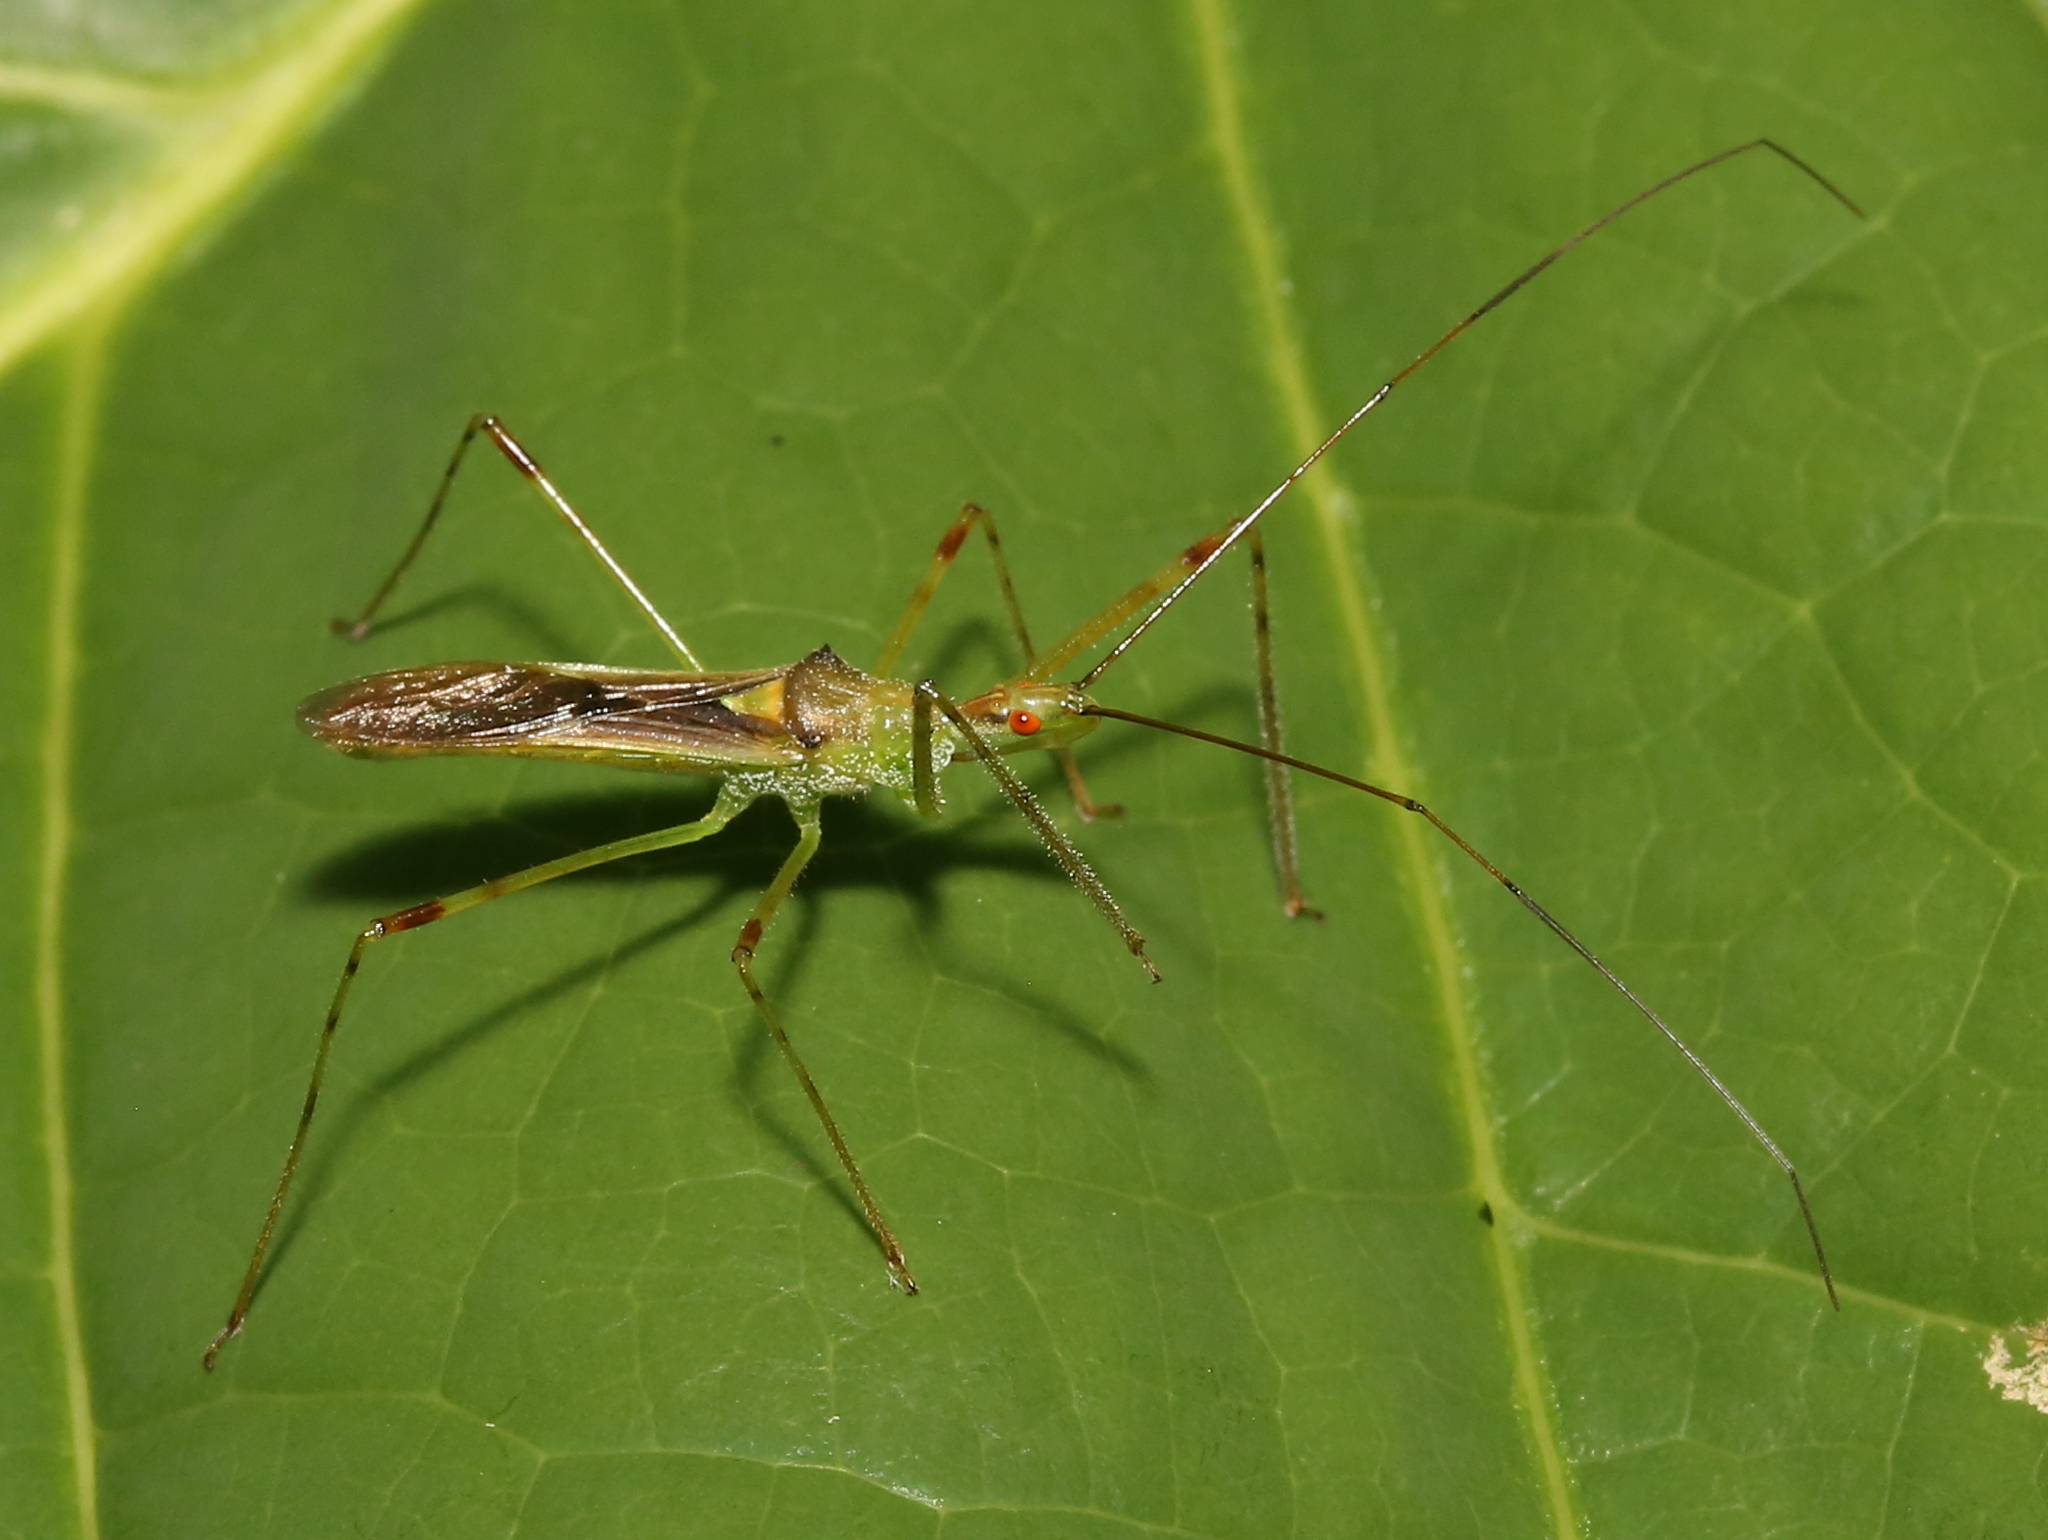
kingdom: Animalia
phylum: Arthropoda
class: Insecta
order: Hemiptera
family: Reduviidae
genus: Zelus
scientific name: Zelus luridus
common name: Pale green assassin bug
